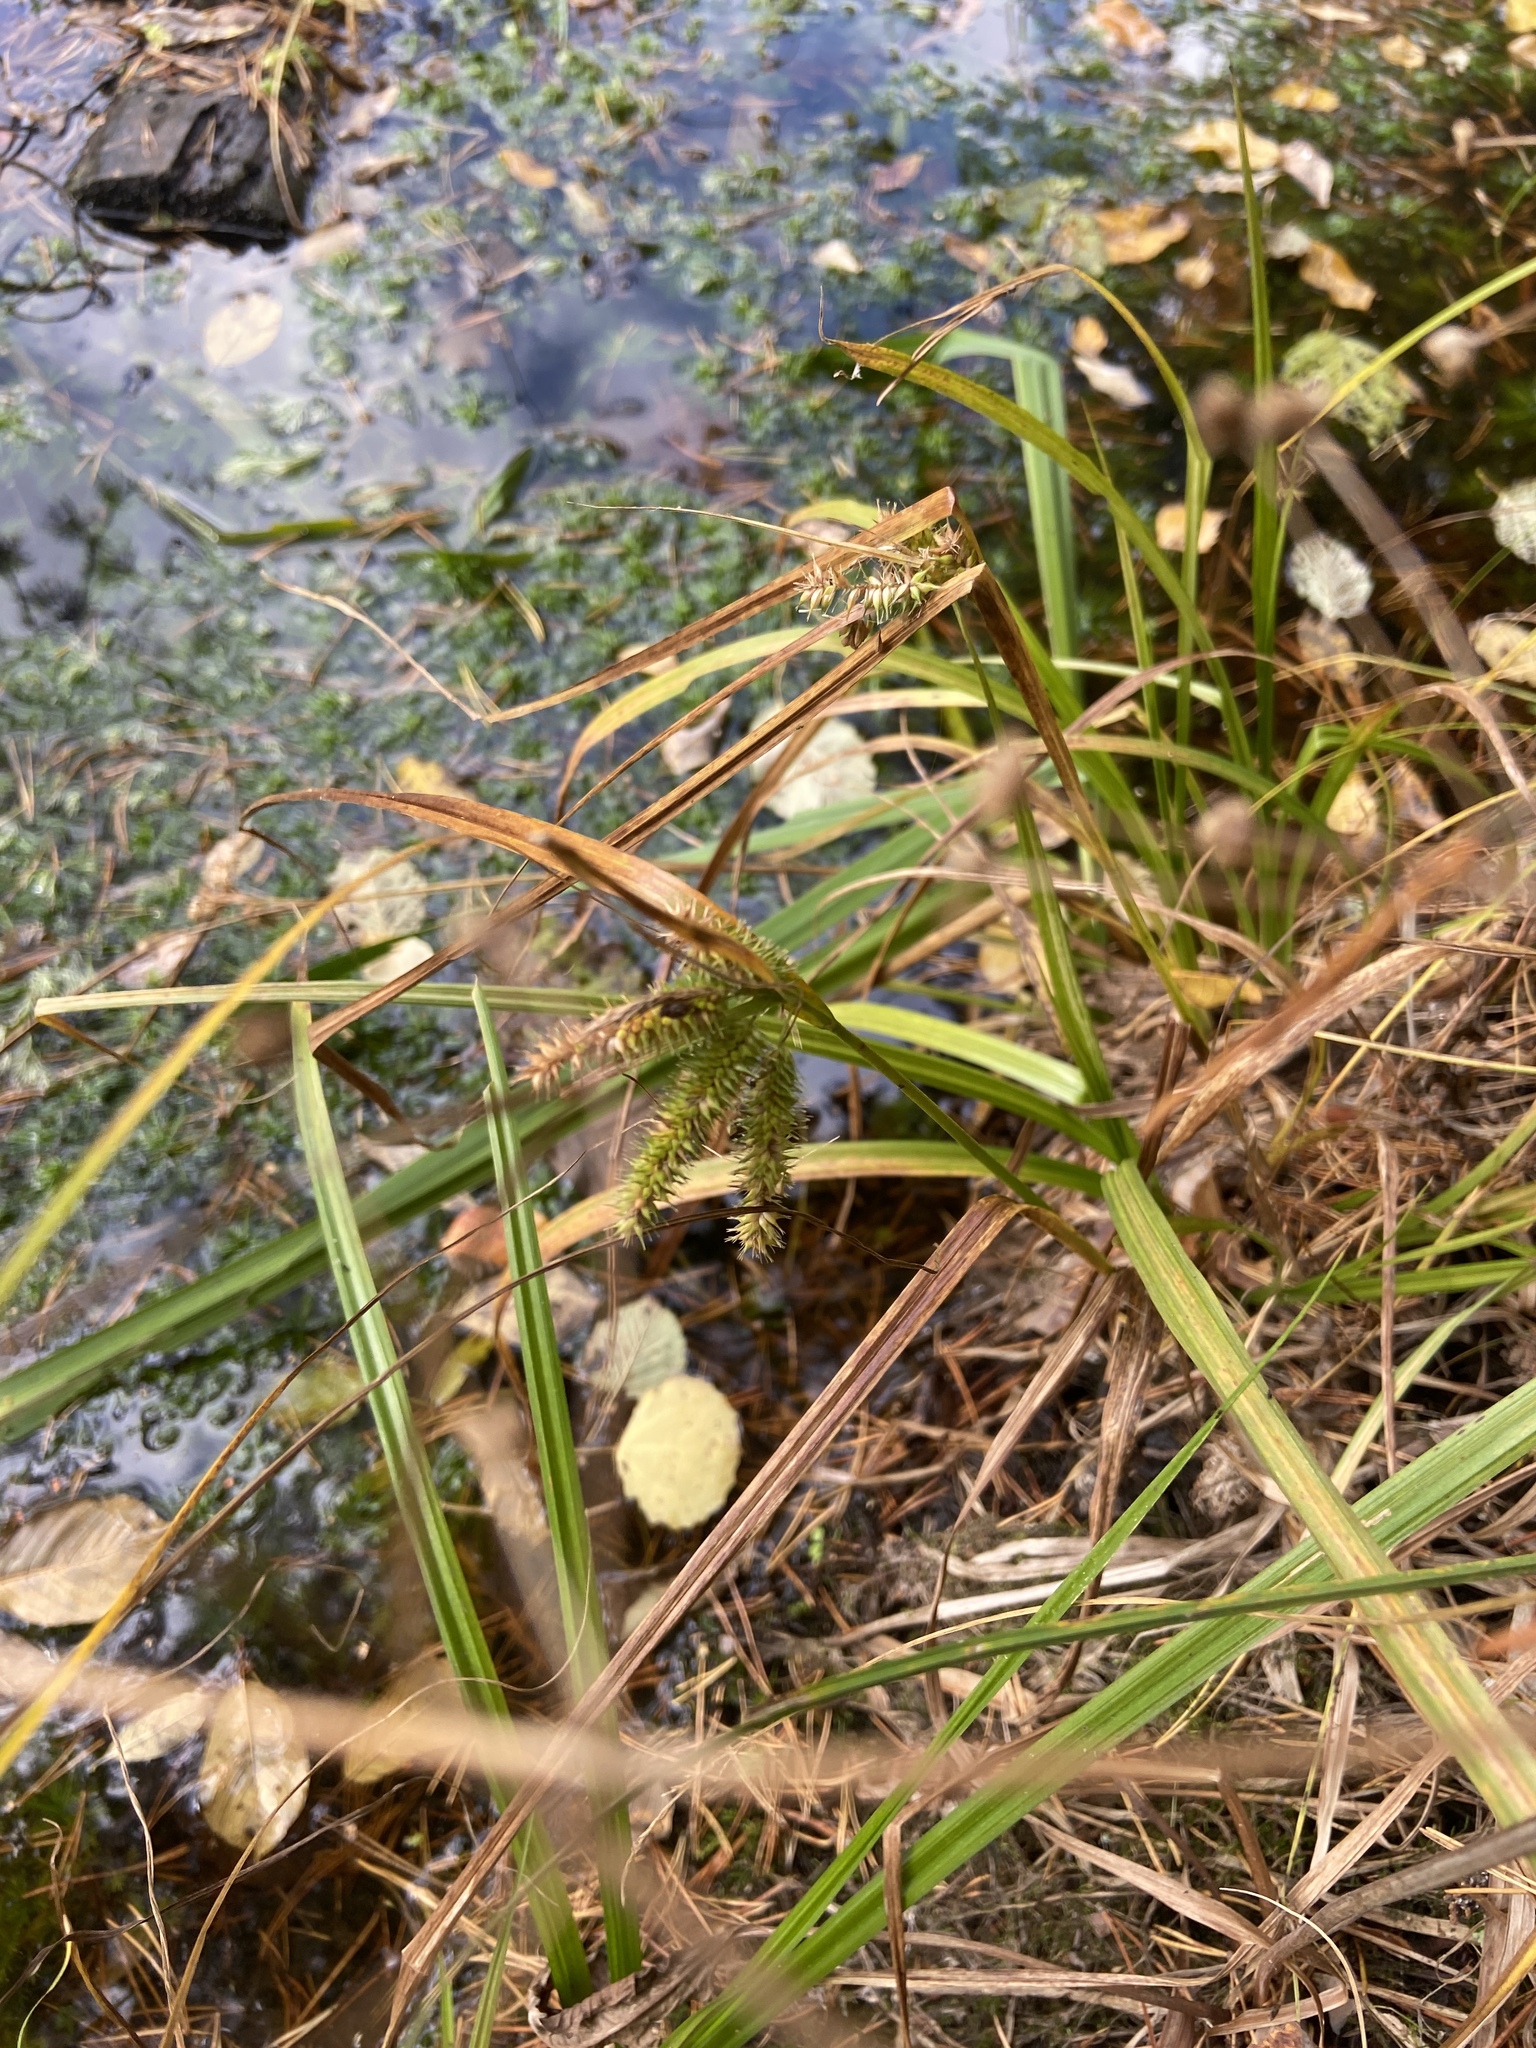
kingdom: Plantae
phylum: Tracheophyta
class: Liliopsida
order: Poales
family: Cyperaceae
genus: Carex
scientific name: Carex pseudocyperus
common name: Cyperus sedge
